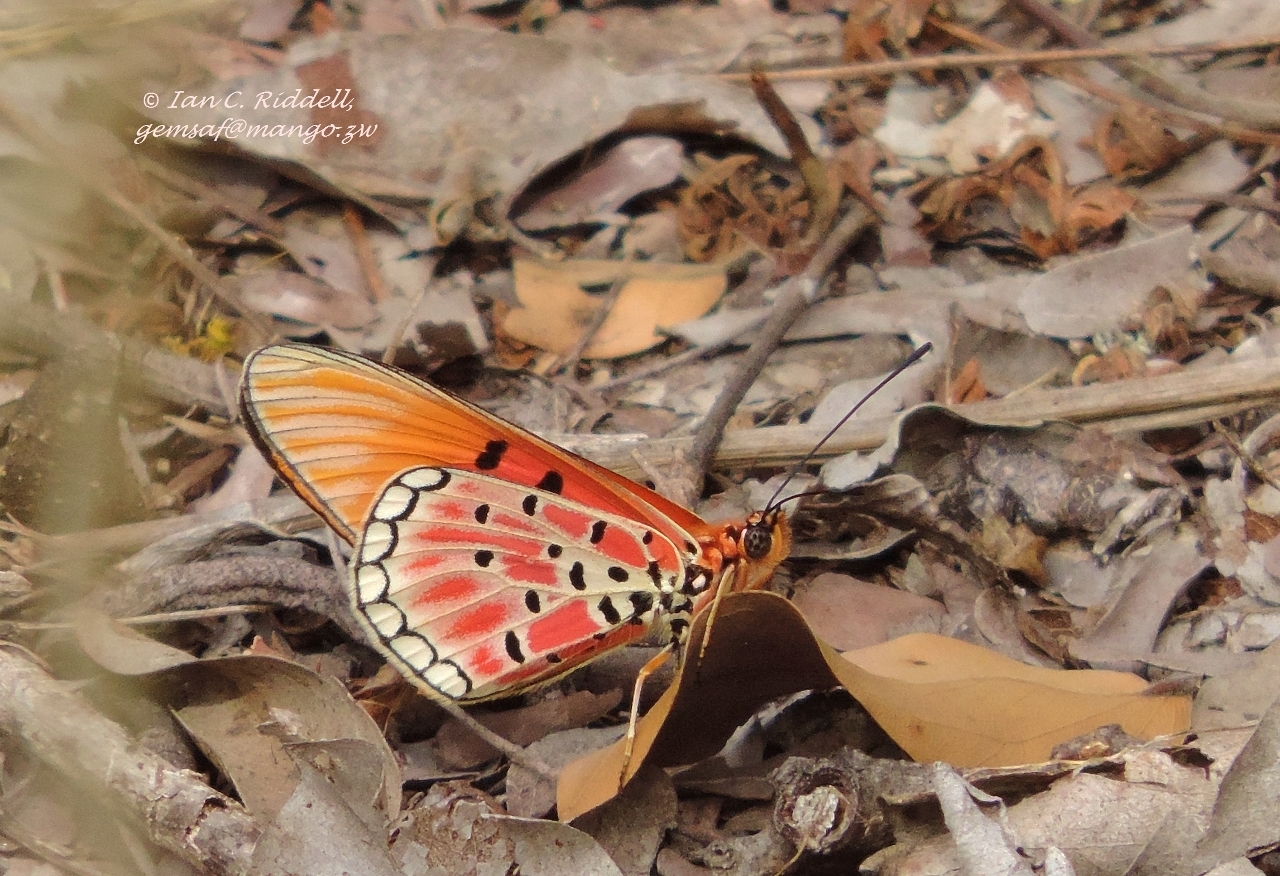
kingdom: Animalia
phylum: Arthropoda
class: Insecta
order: Lepidoptera
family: Nymphalidae
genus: Rubraea
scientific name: Rubraea
